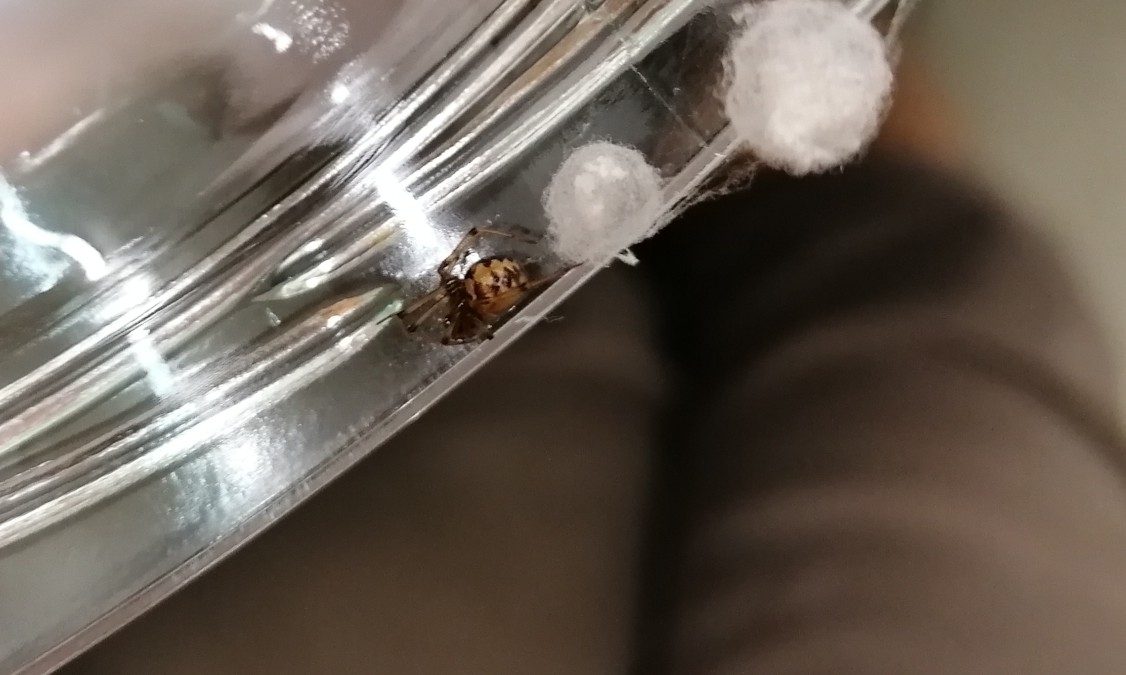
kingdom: Animalia
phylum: Arthropoda
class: Arachnida
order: Araneae
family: Theridiidae
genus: Steatoda
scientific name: Steatoda triangulosa
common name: Triangulate bud spider
